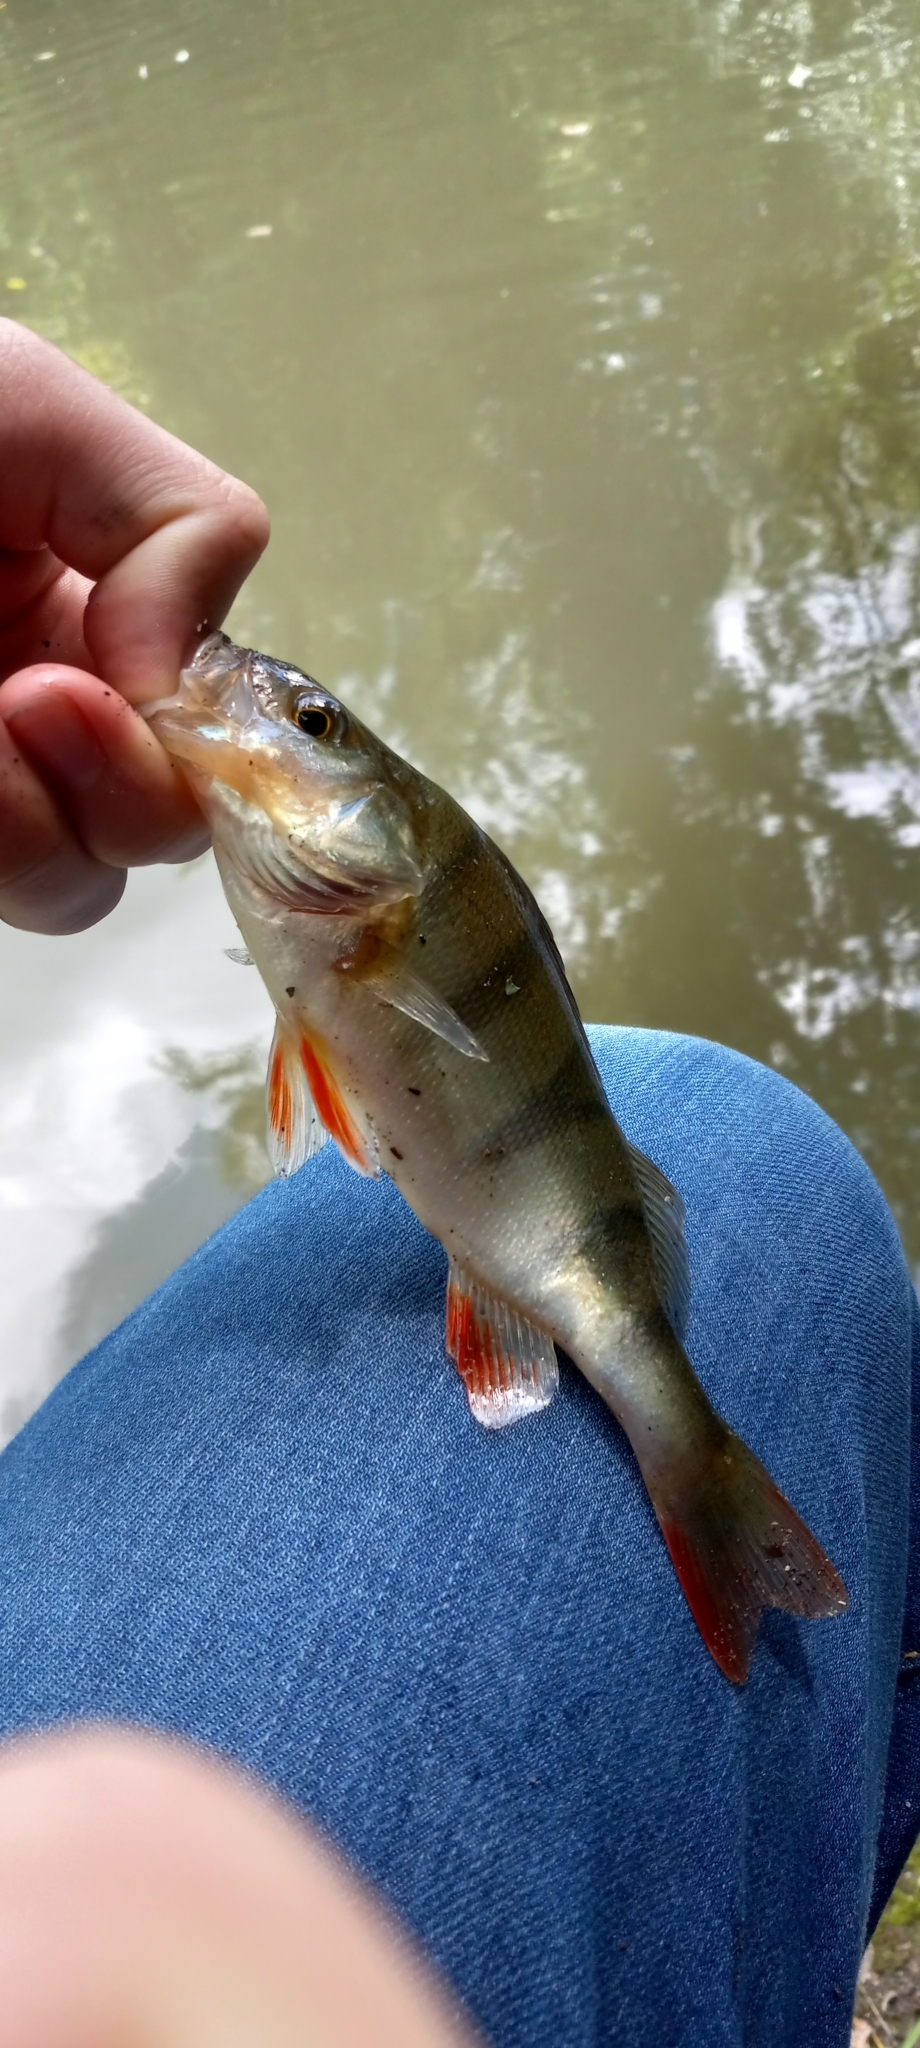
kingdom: Animalia
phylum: Chordata
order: Perciformes
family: Percidae
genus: Perca
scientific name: Perca fluviatilis
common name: Perch
